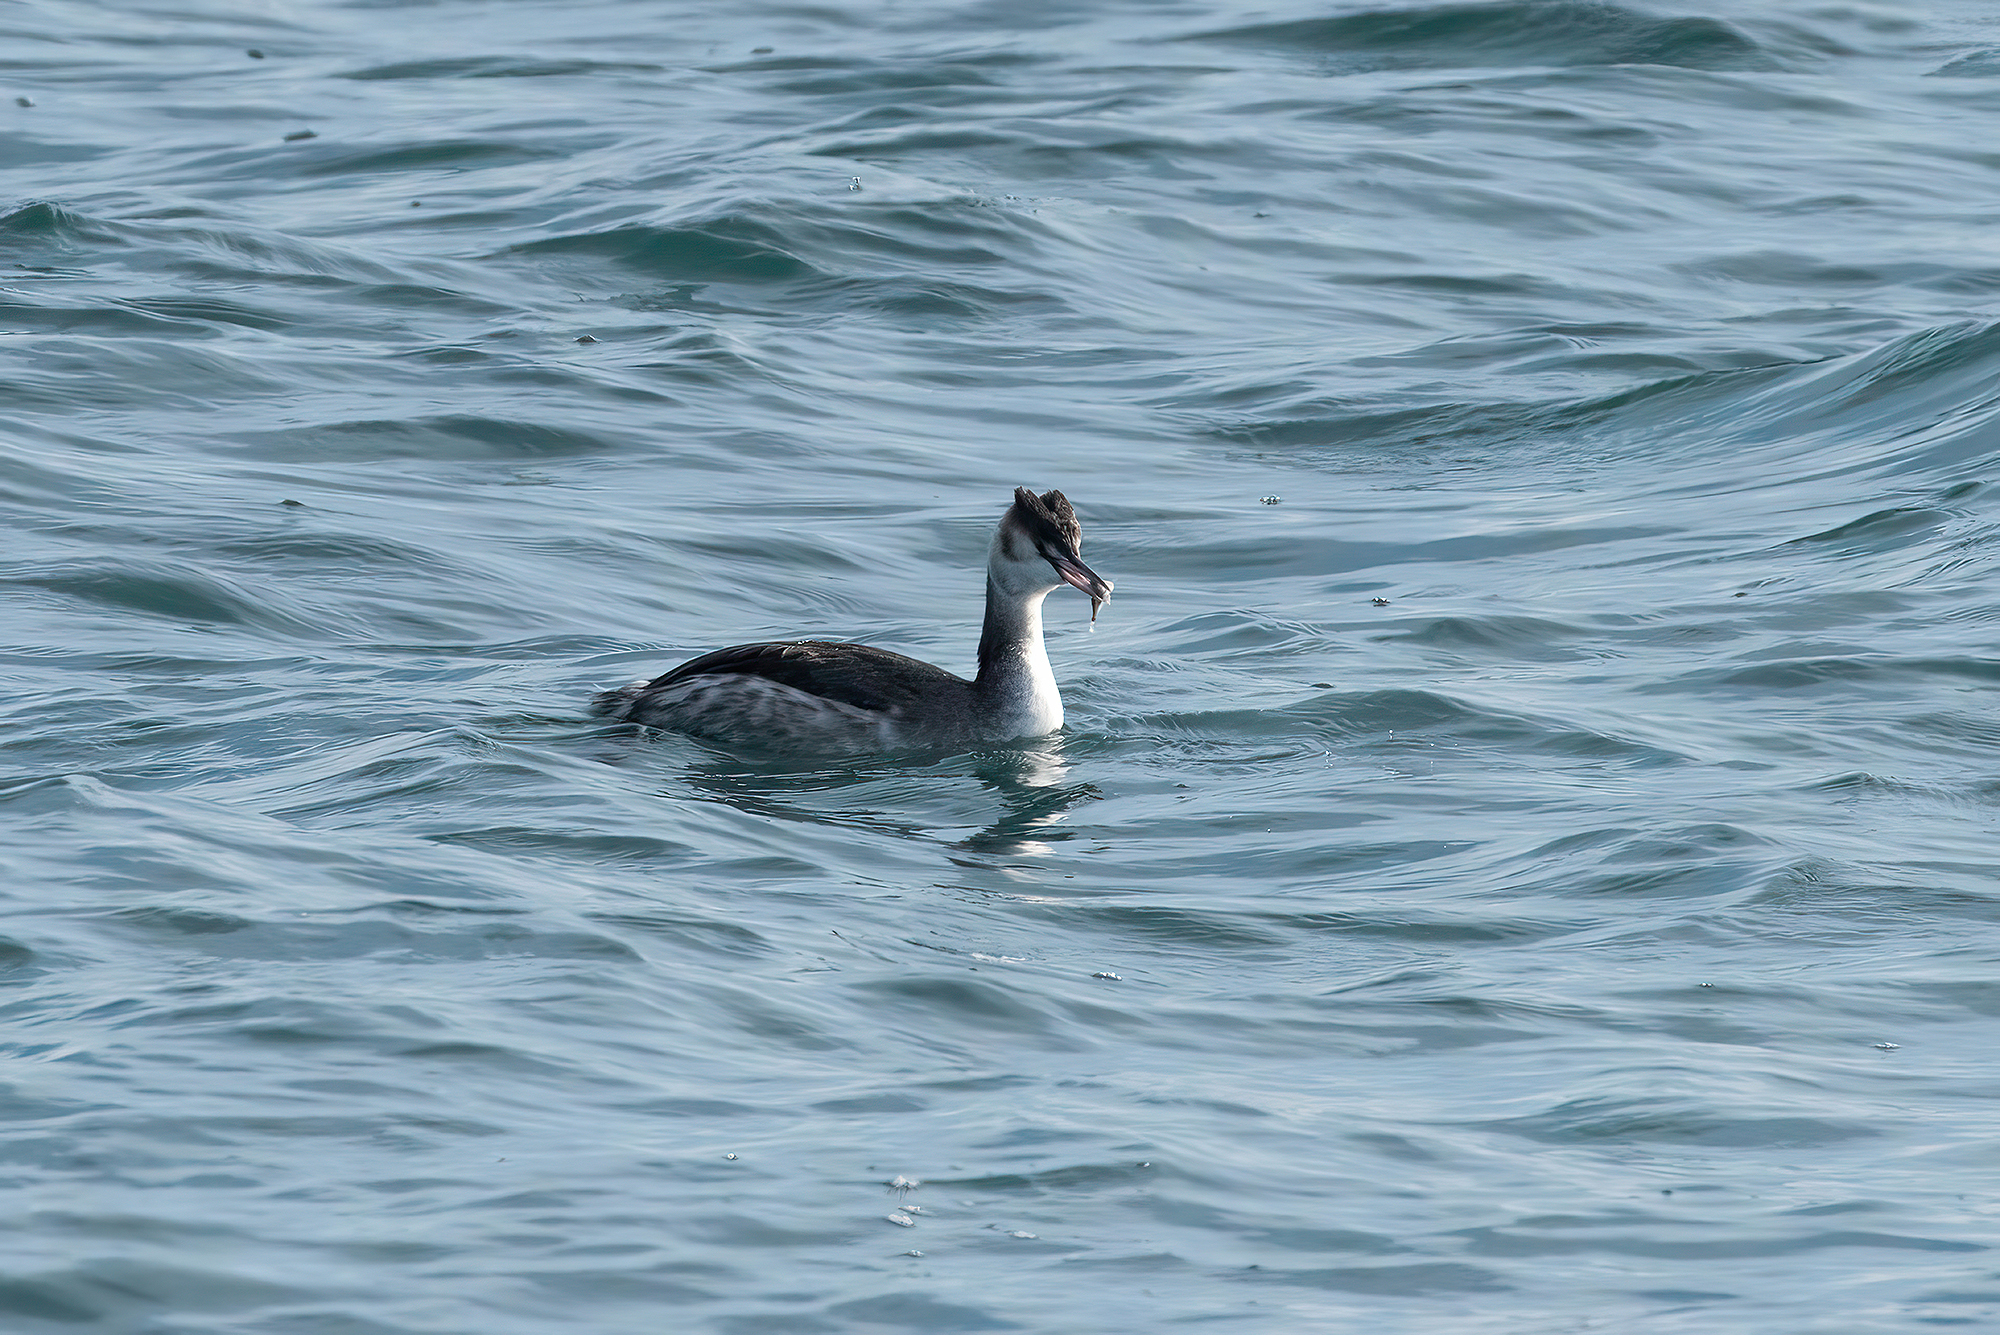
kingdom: Animalia
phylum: Chordata
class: Aves
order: Podicipediformes
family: Podicipedidae
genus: Podiceps
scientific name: Podiceps cristatus
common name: Great crested grebe
